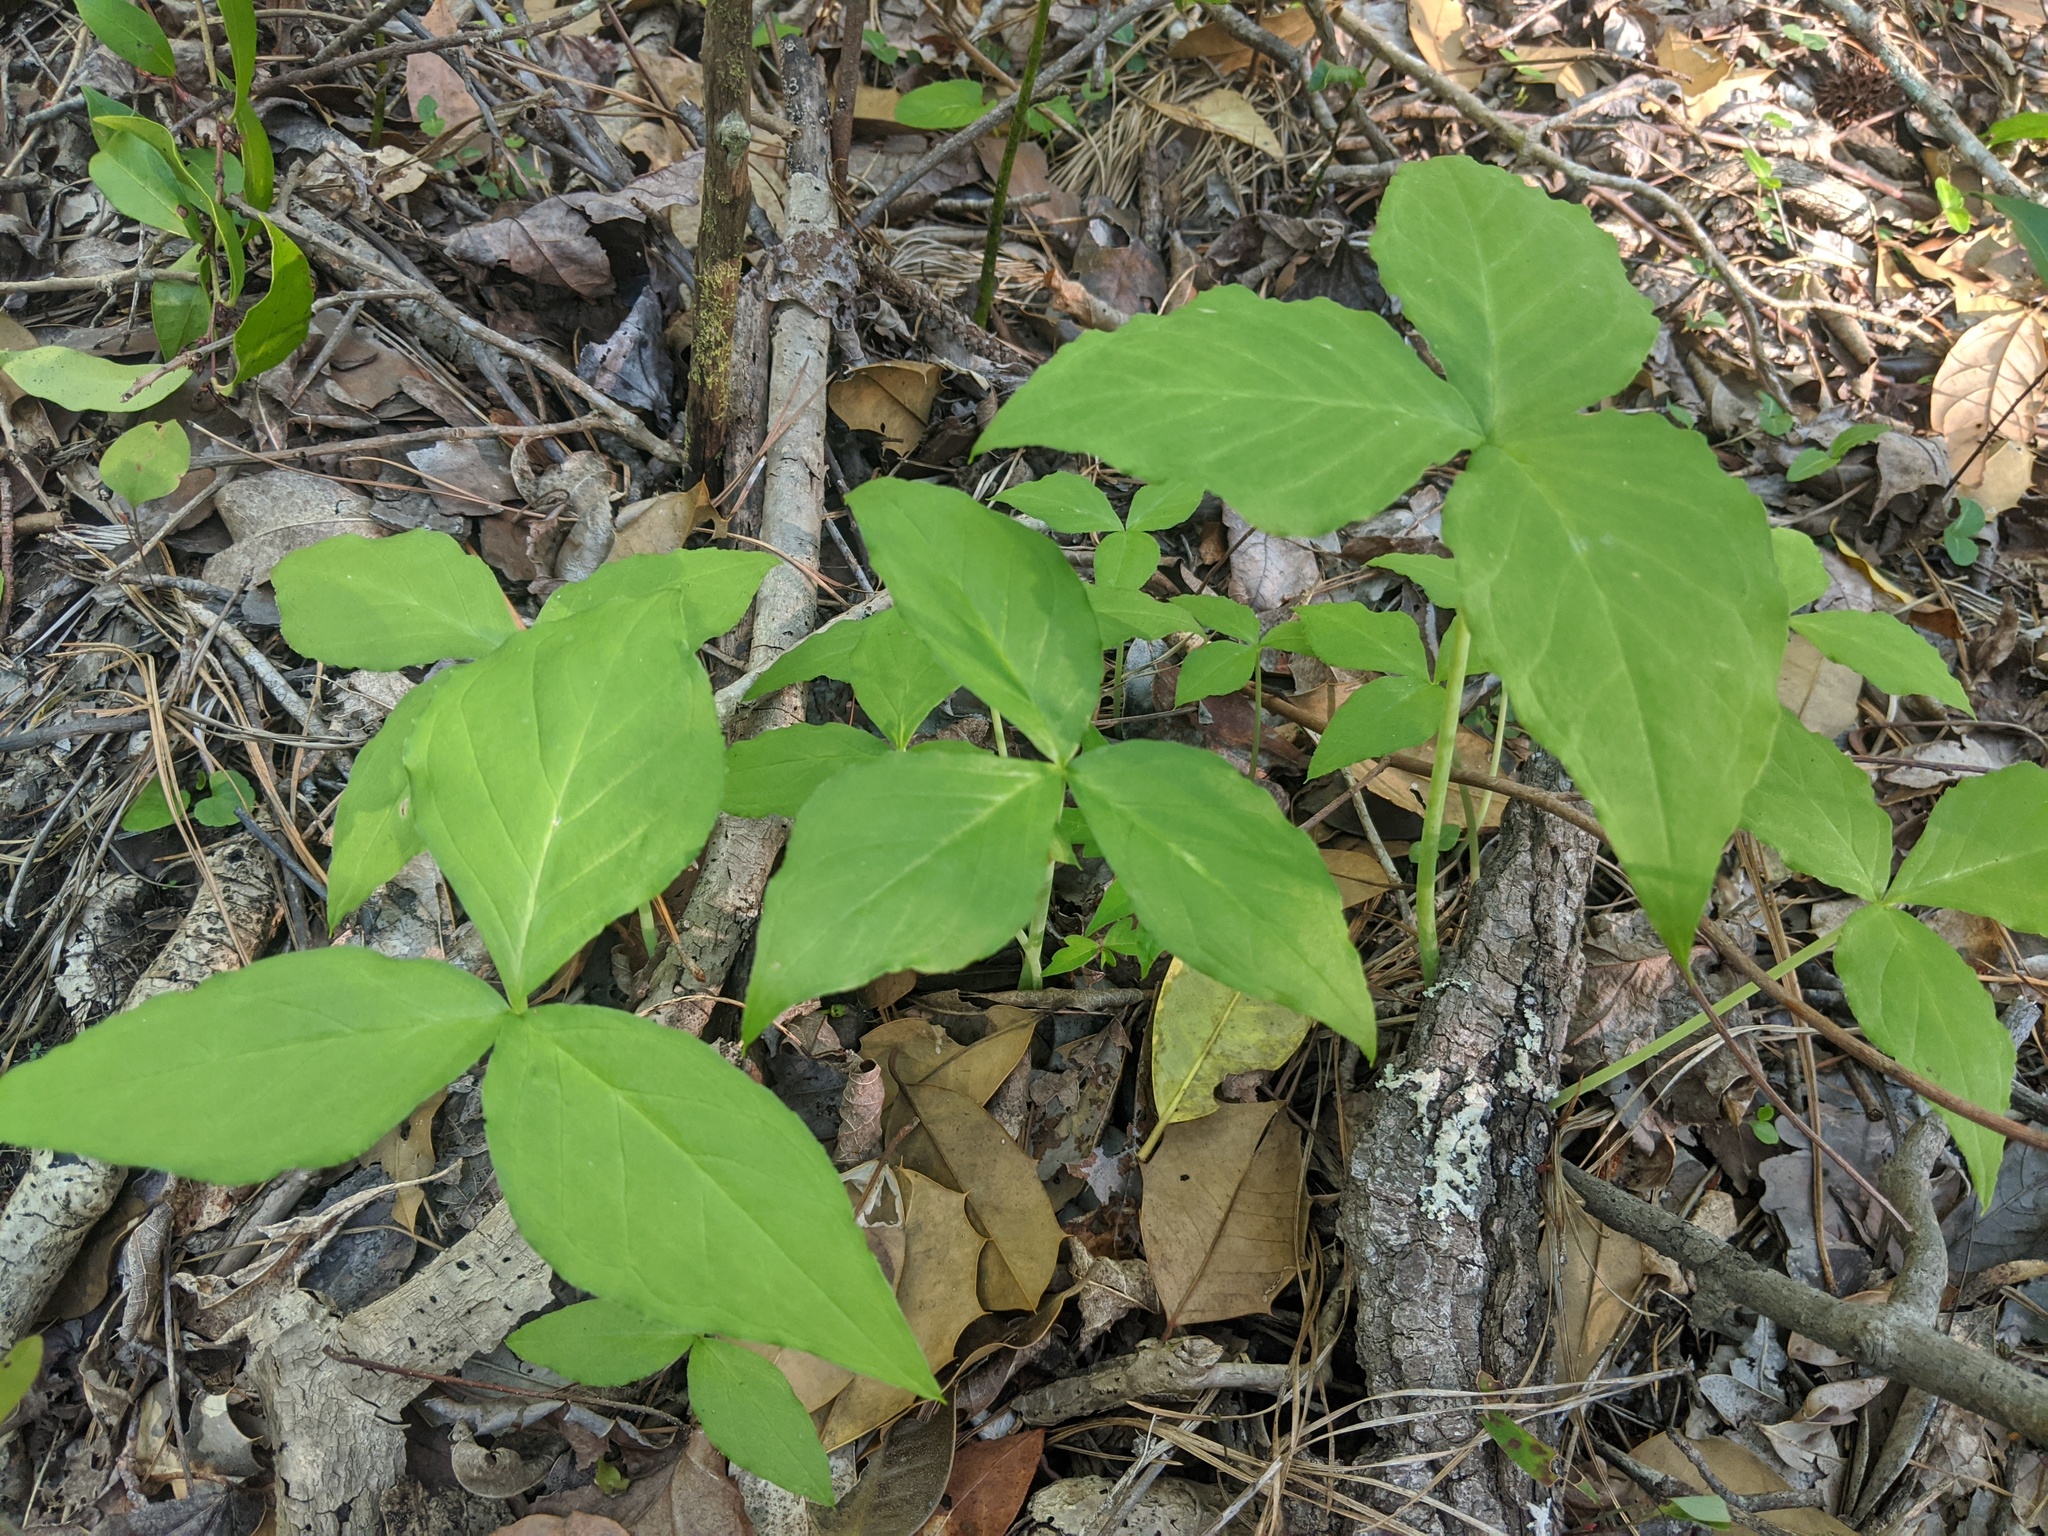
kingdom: Plantae
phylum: Tracheophyta
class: Liliopsida
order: Alismatales
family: Araceae
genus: Arisaema
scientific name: Arisaema triphyllum
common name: Jack-in-the-pulpit
